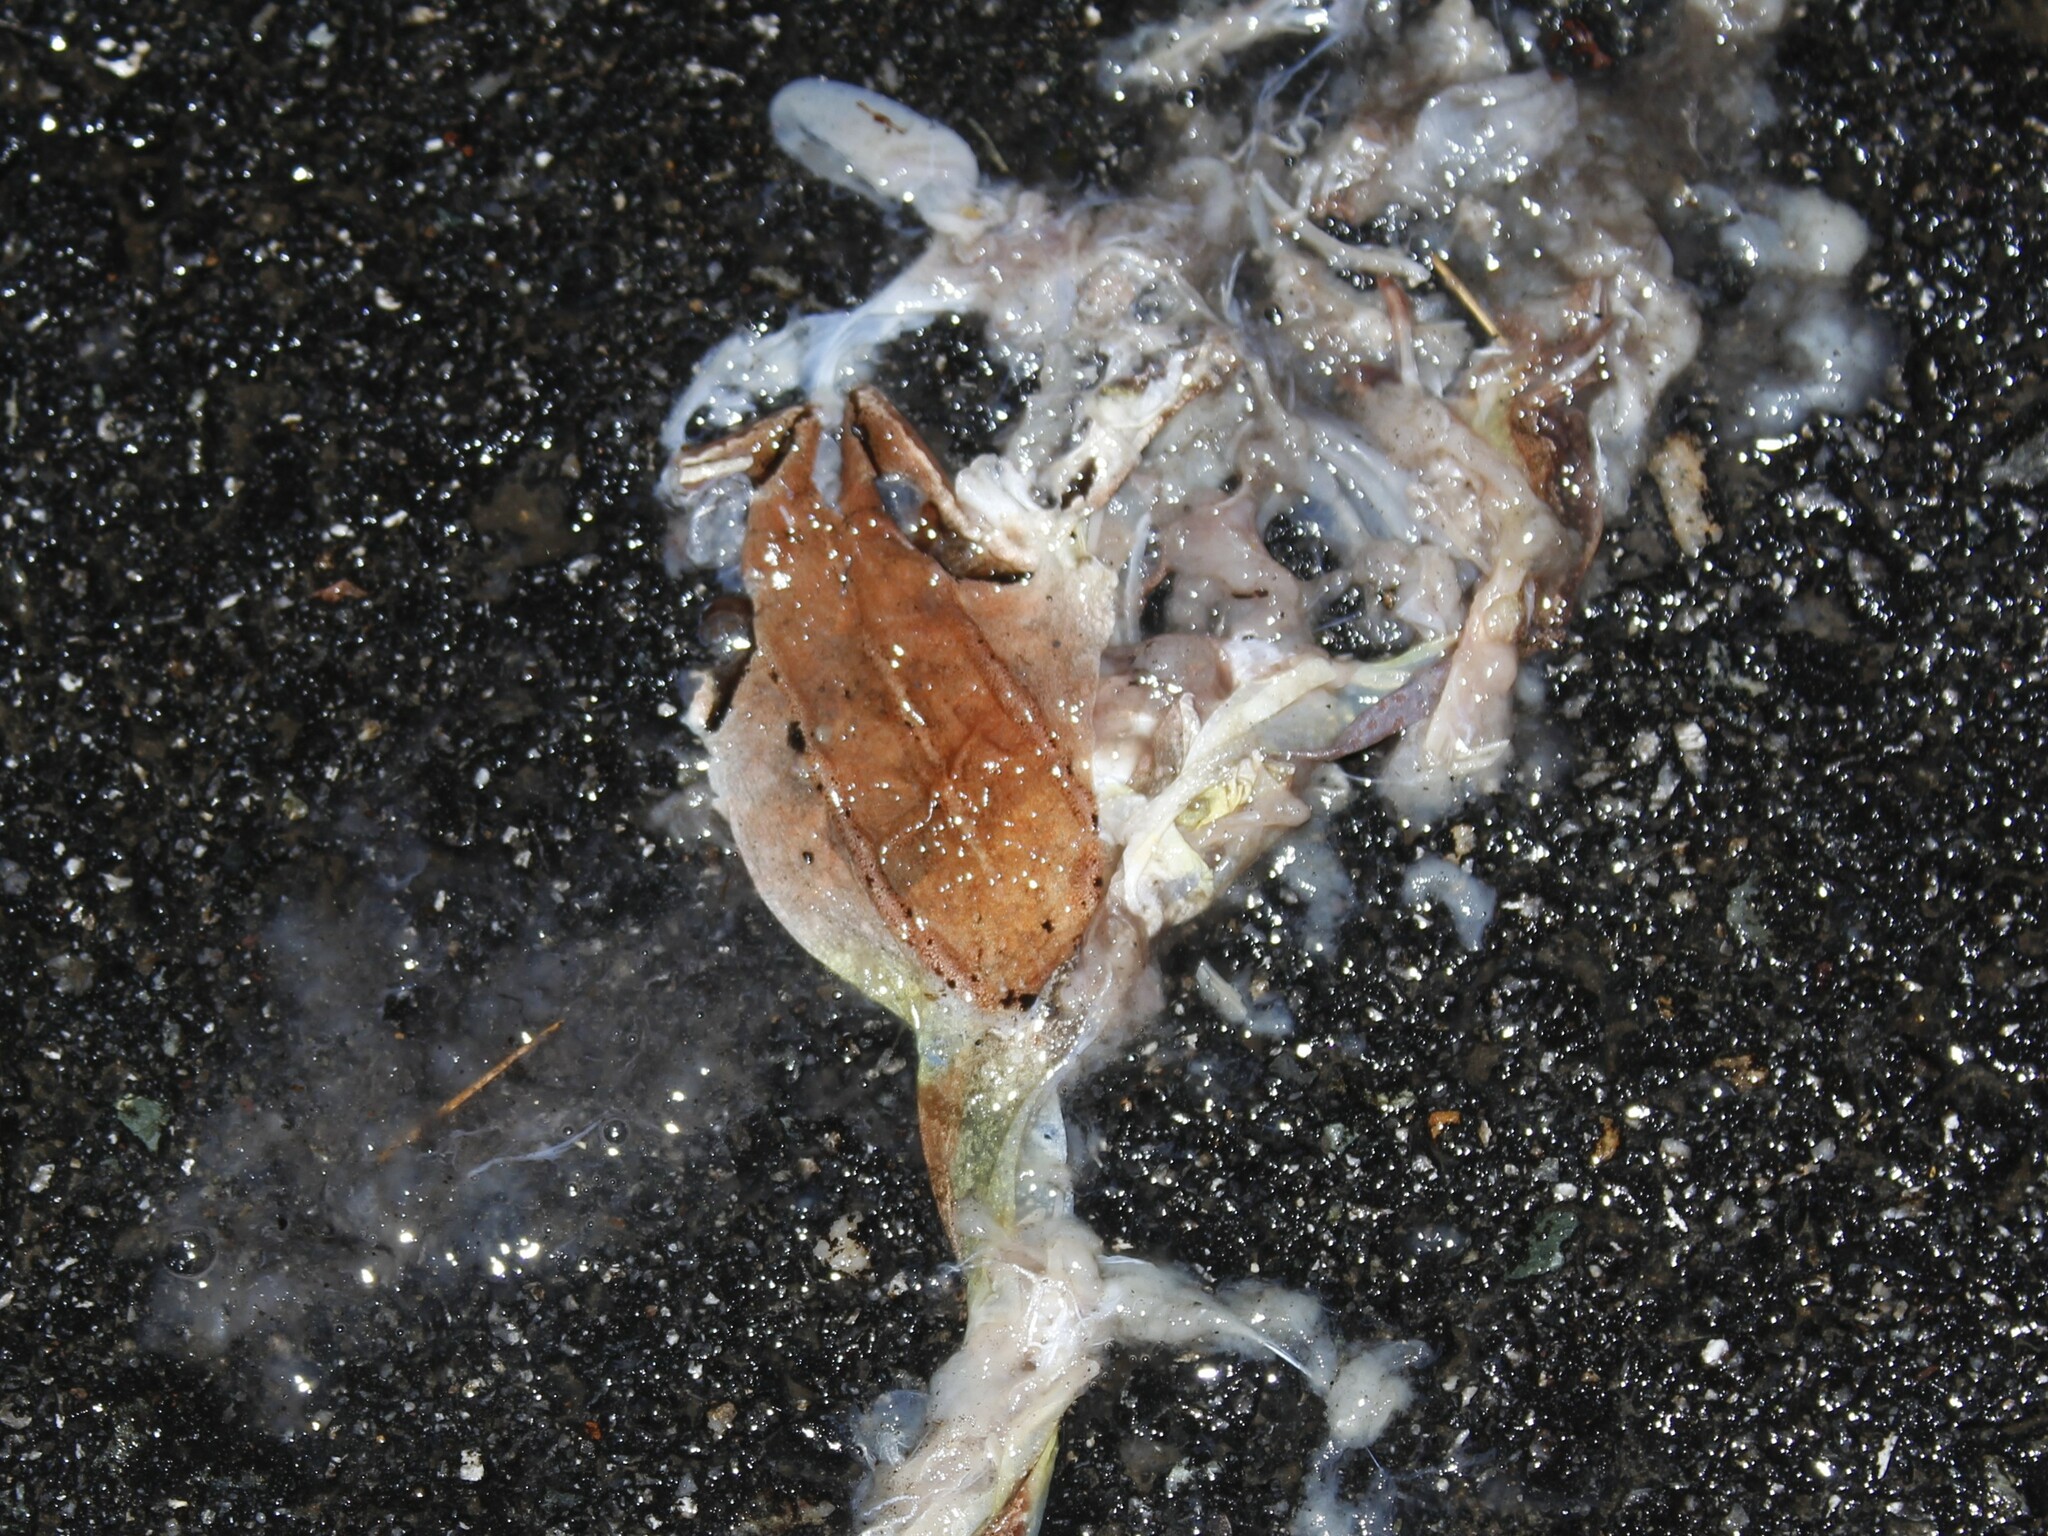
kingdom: Animalia
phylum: Chordata
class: Amphibia
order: Anura
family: Ranidae
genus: Lithobates
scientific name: Lithobates sylvaticus
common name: Wood frog
